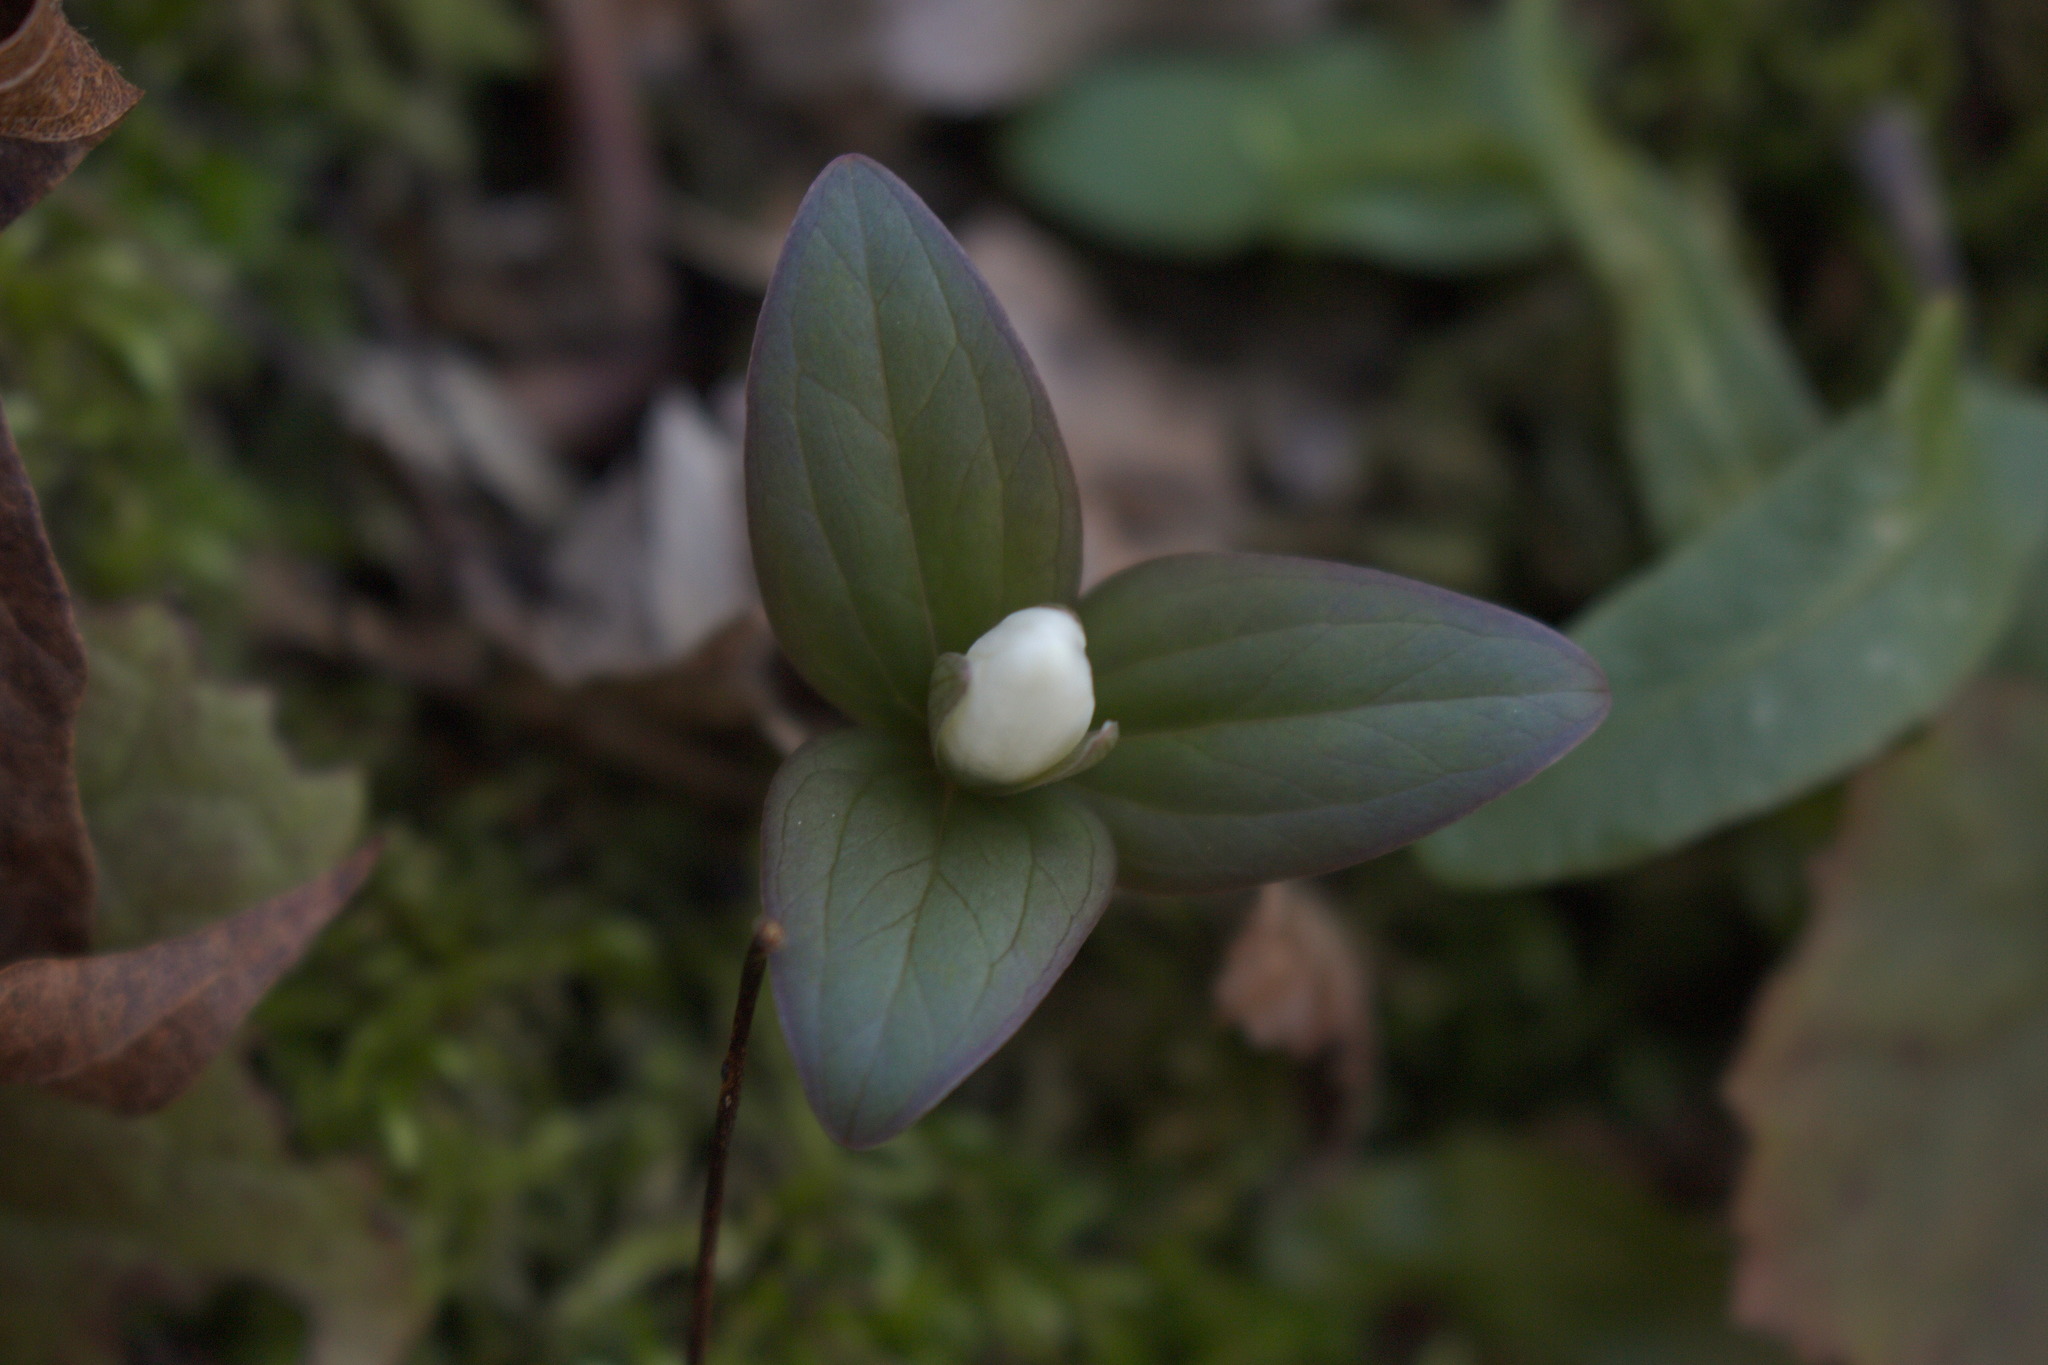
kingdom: Plantae
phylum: Tracheophyta
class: Liliopsida
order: Liliales
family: Melanthiaceae
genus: Trillium
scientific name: Trillium nivale
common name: Dwarf white trillium
